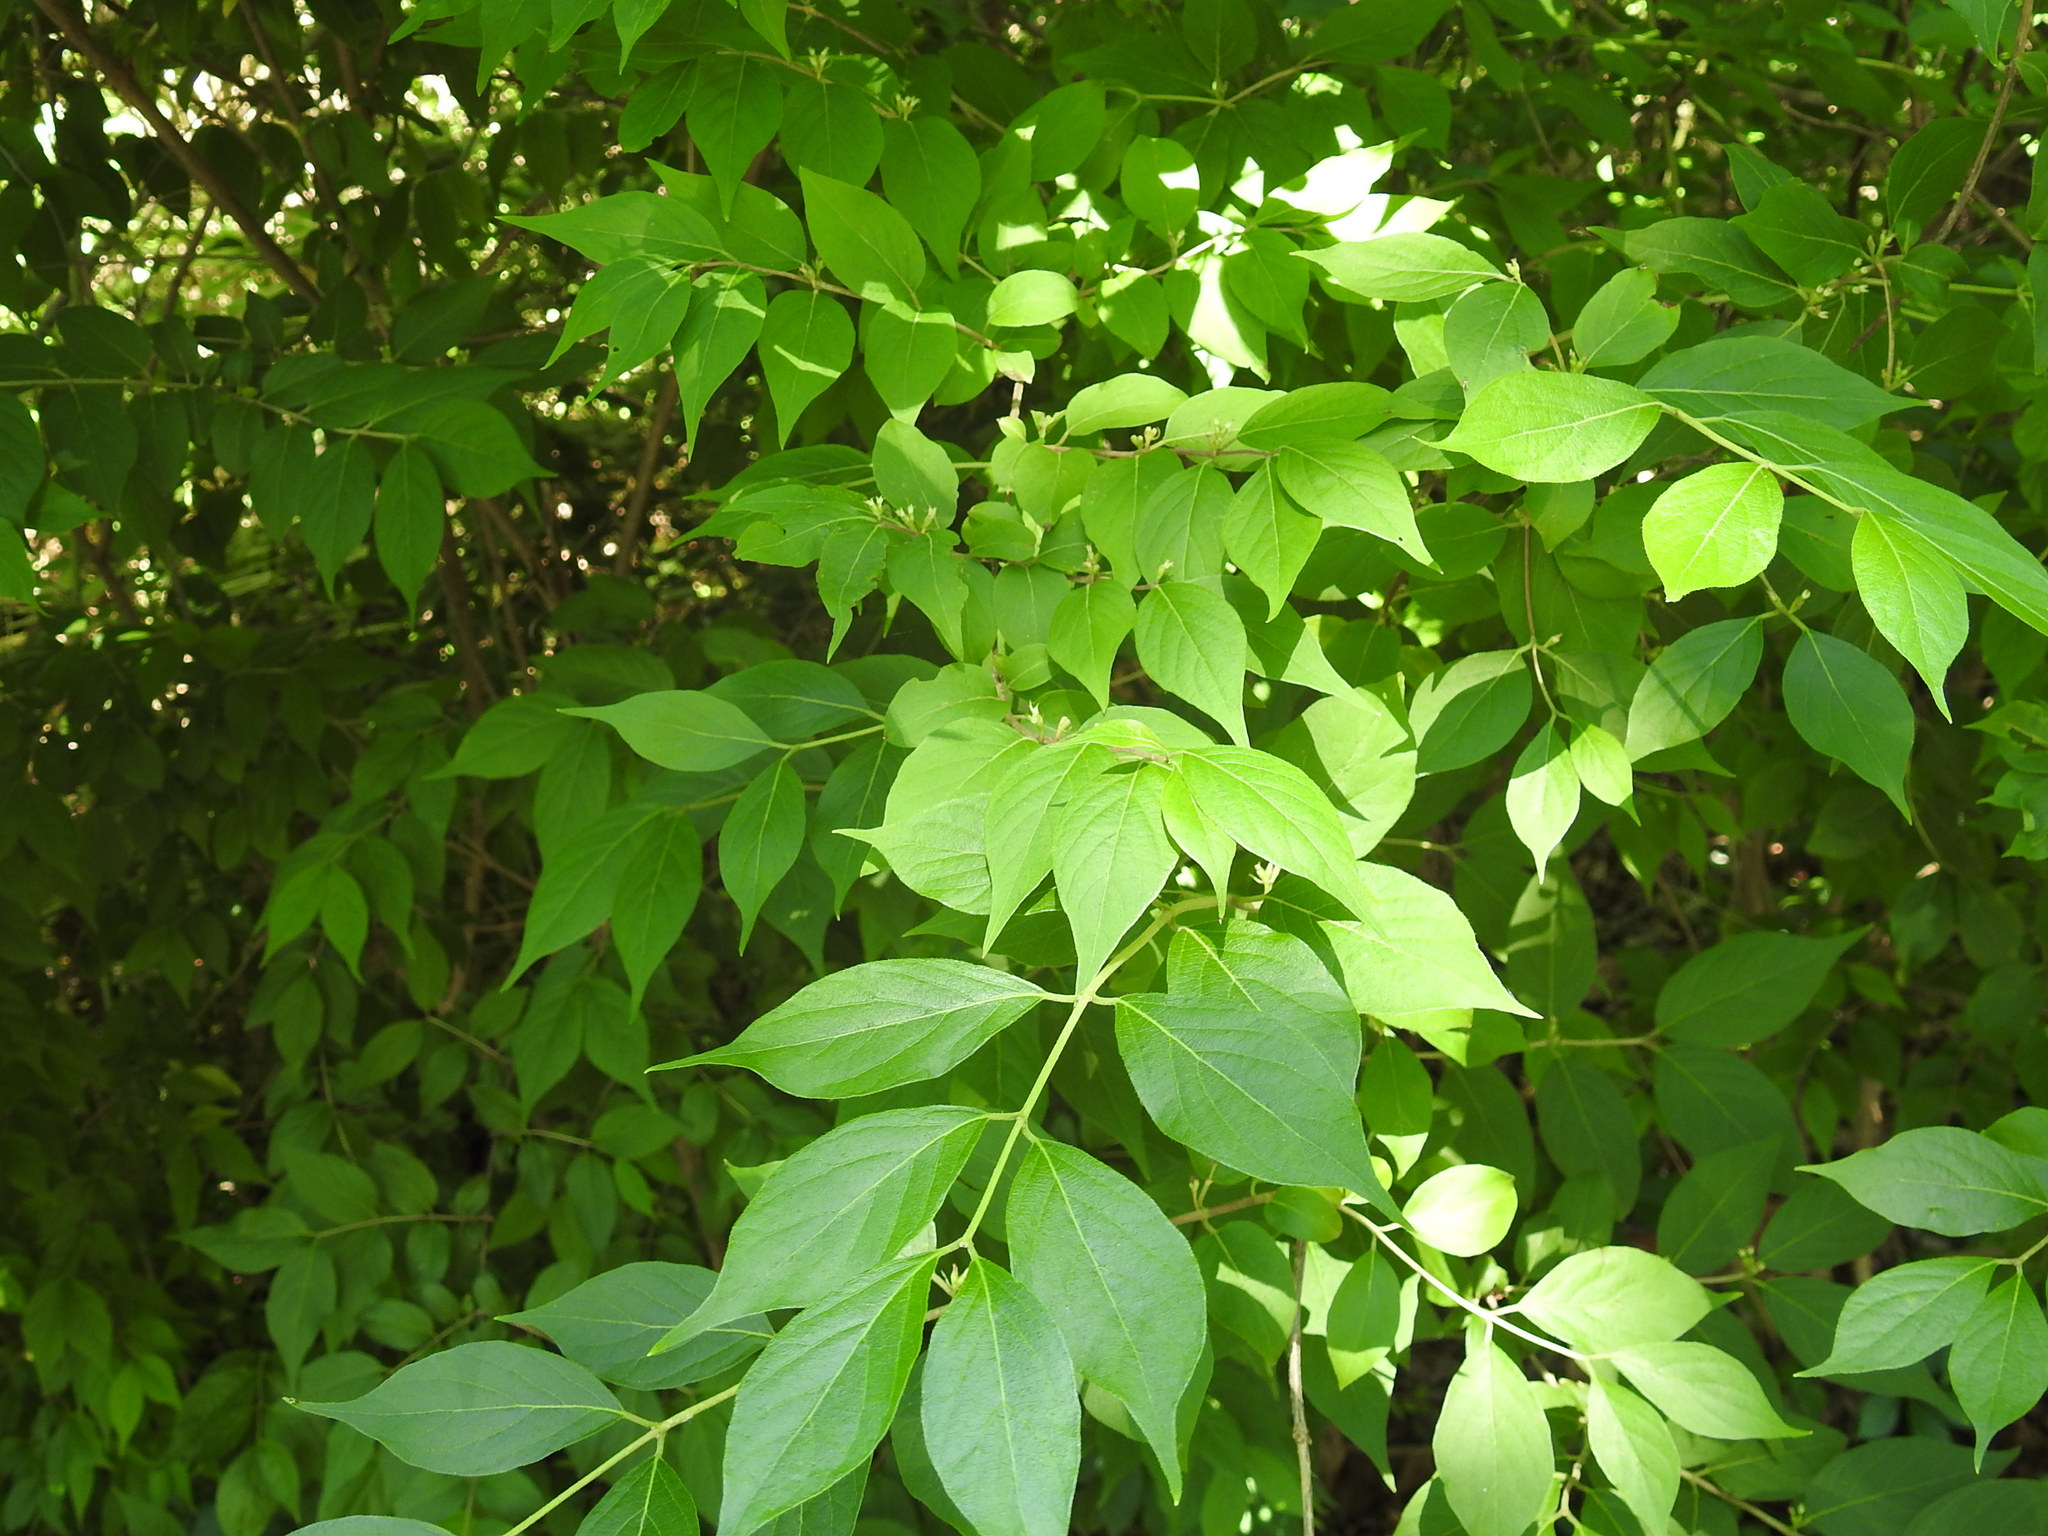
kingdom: Plantae
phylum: Tracheophyta
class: Magnoliopsida
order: Dipsacales
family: Caprifoliaceae
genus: Lonicera
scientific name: Lonicera maackii
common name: Amur honeysuckle
